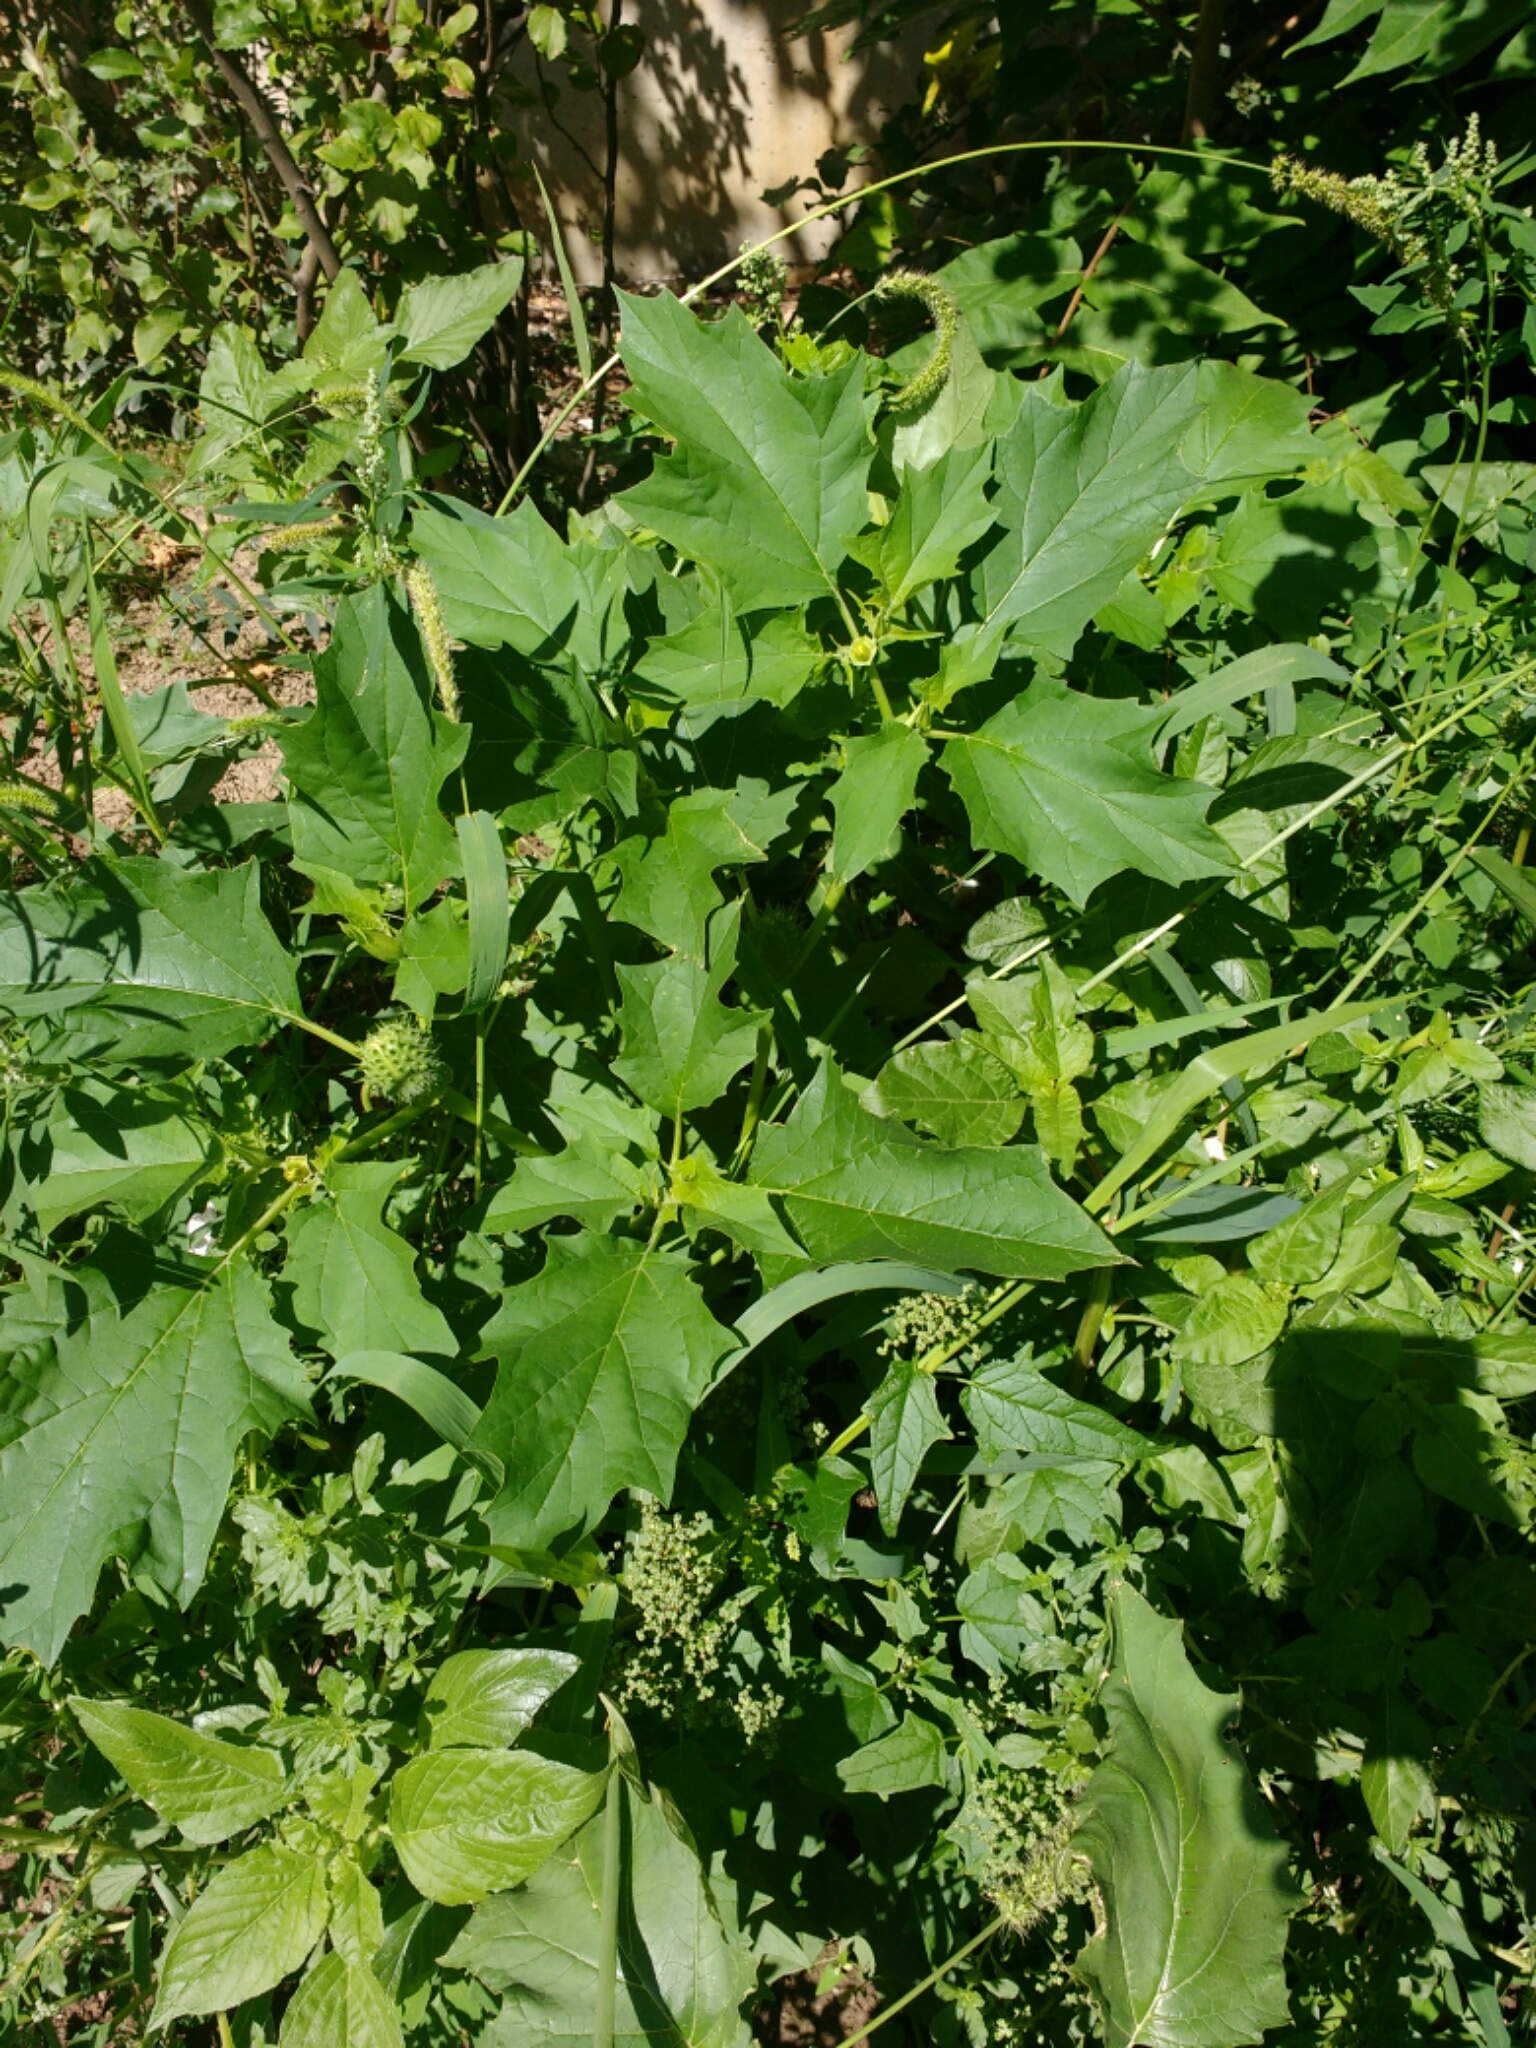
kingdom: Plantae
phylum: Tracheophyta
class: Magnoliopsida
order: Solanales
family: Solanaceae
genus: Datura
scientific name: Datura stramonium
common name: Thorn-apple
